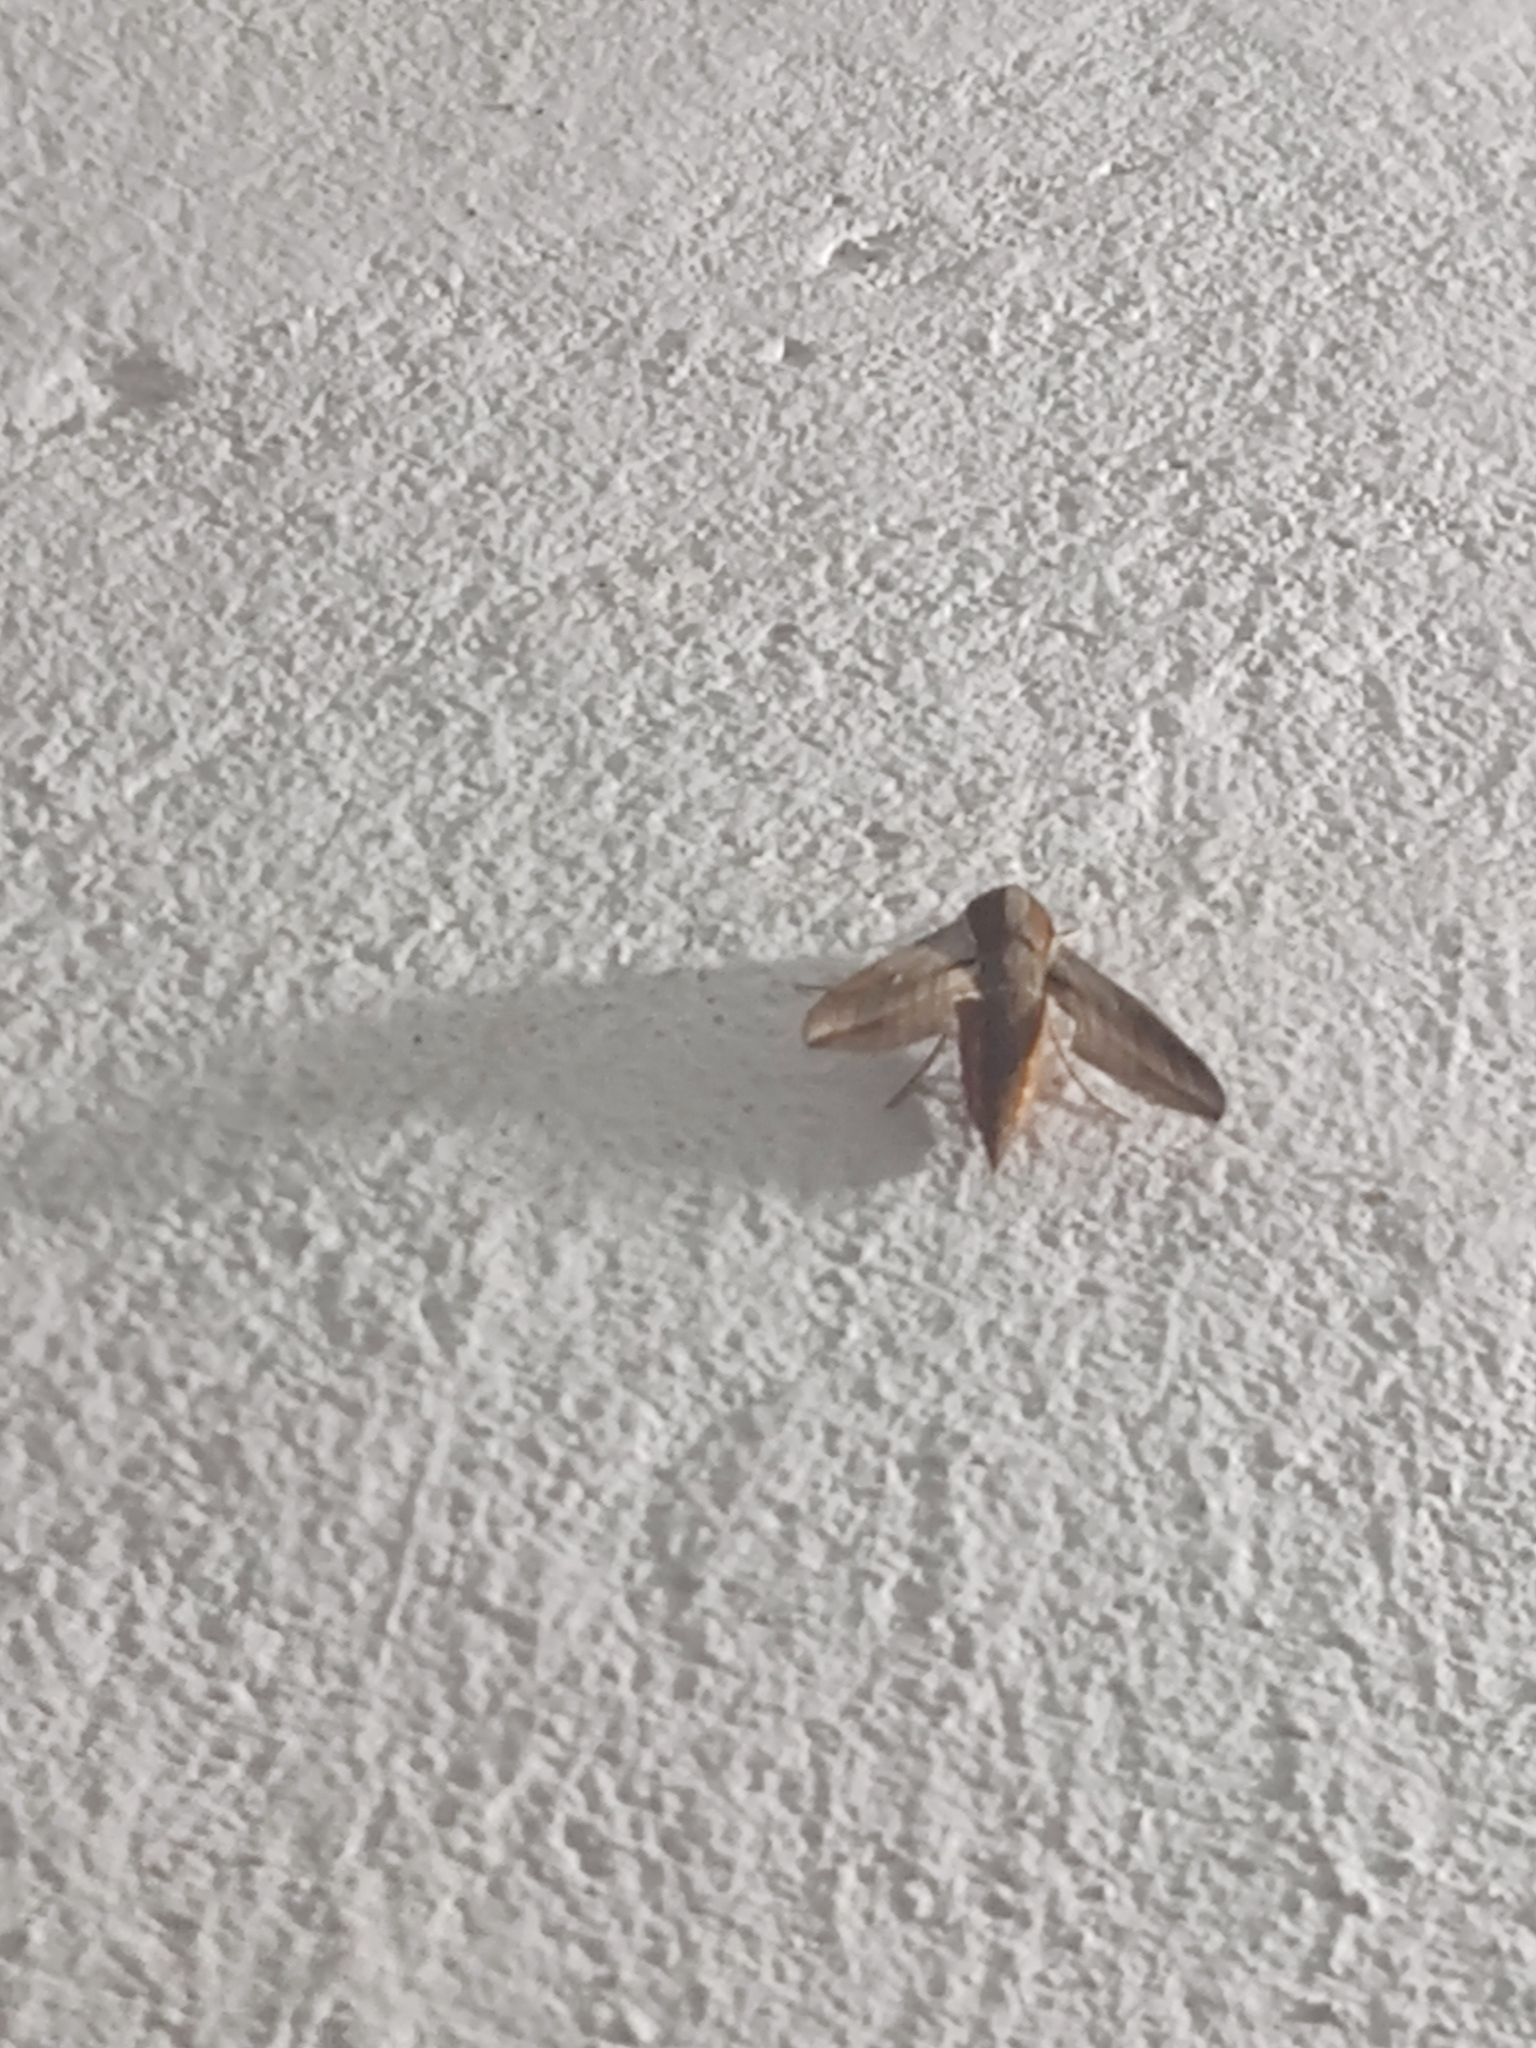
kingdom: Animalia
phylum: Arthropoda
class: Insecta
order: Lepidoptera
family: Sphingidae
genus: Hippotion
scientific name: Hippotion rosetta
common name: Vine hawk moth
